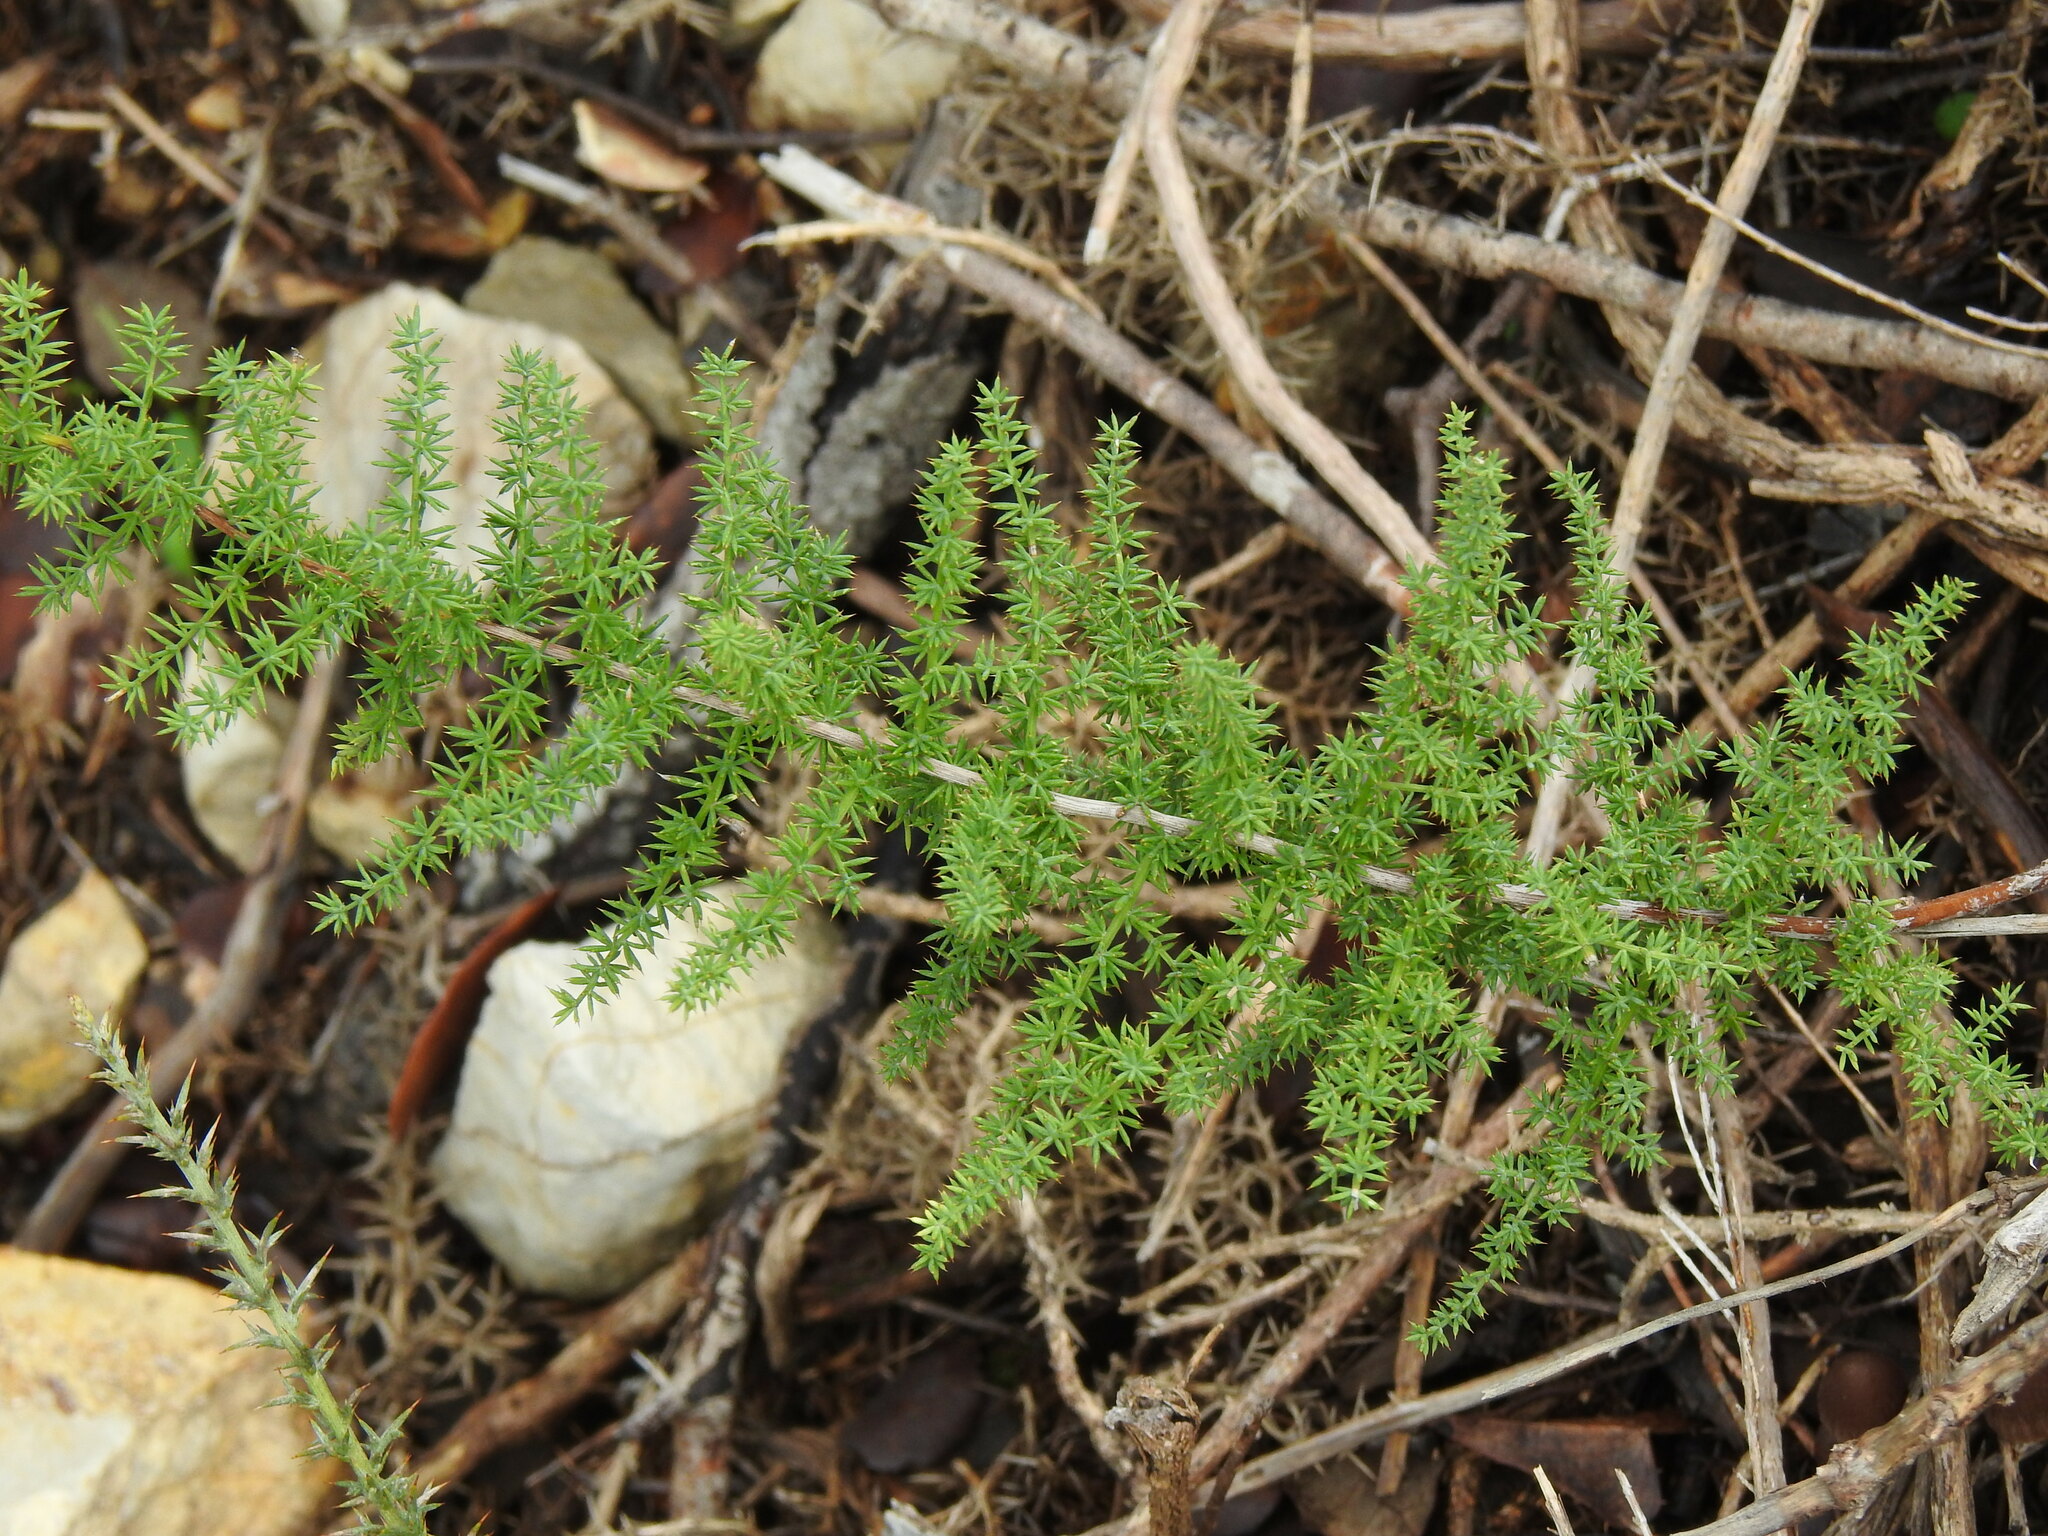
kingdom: Plantae
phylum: Tracheophyta
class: Liliopsida
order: Asparagales
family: Asparagaceae
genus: Asparagus
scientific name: Asparagus acutifolius
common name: Wild asparagus
